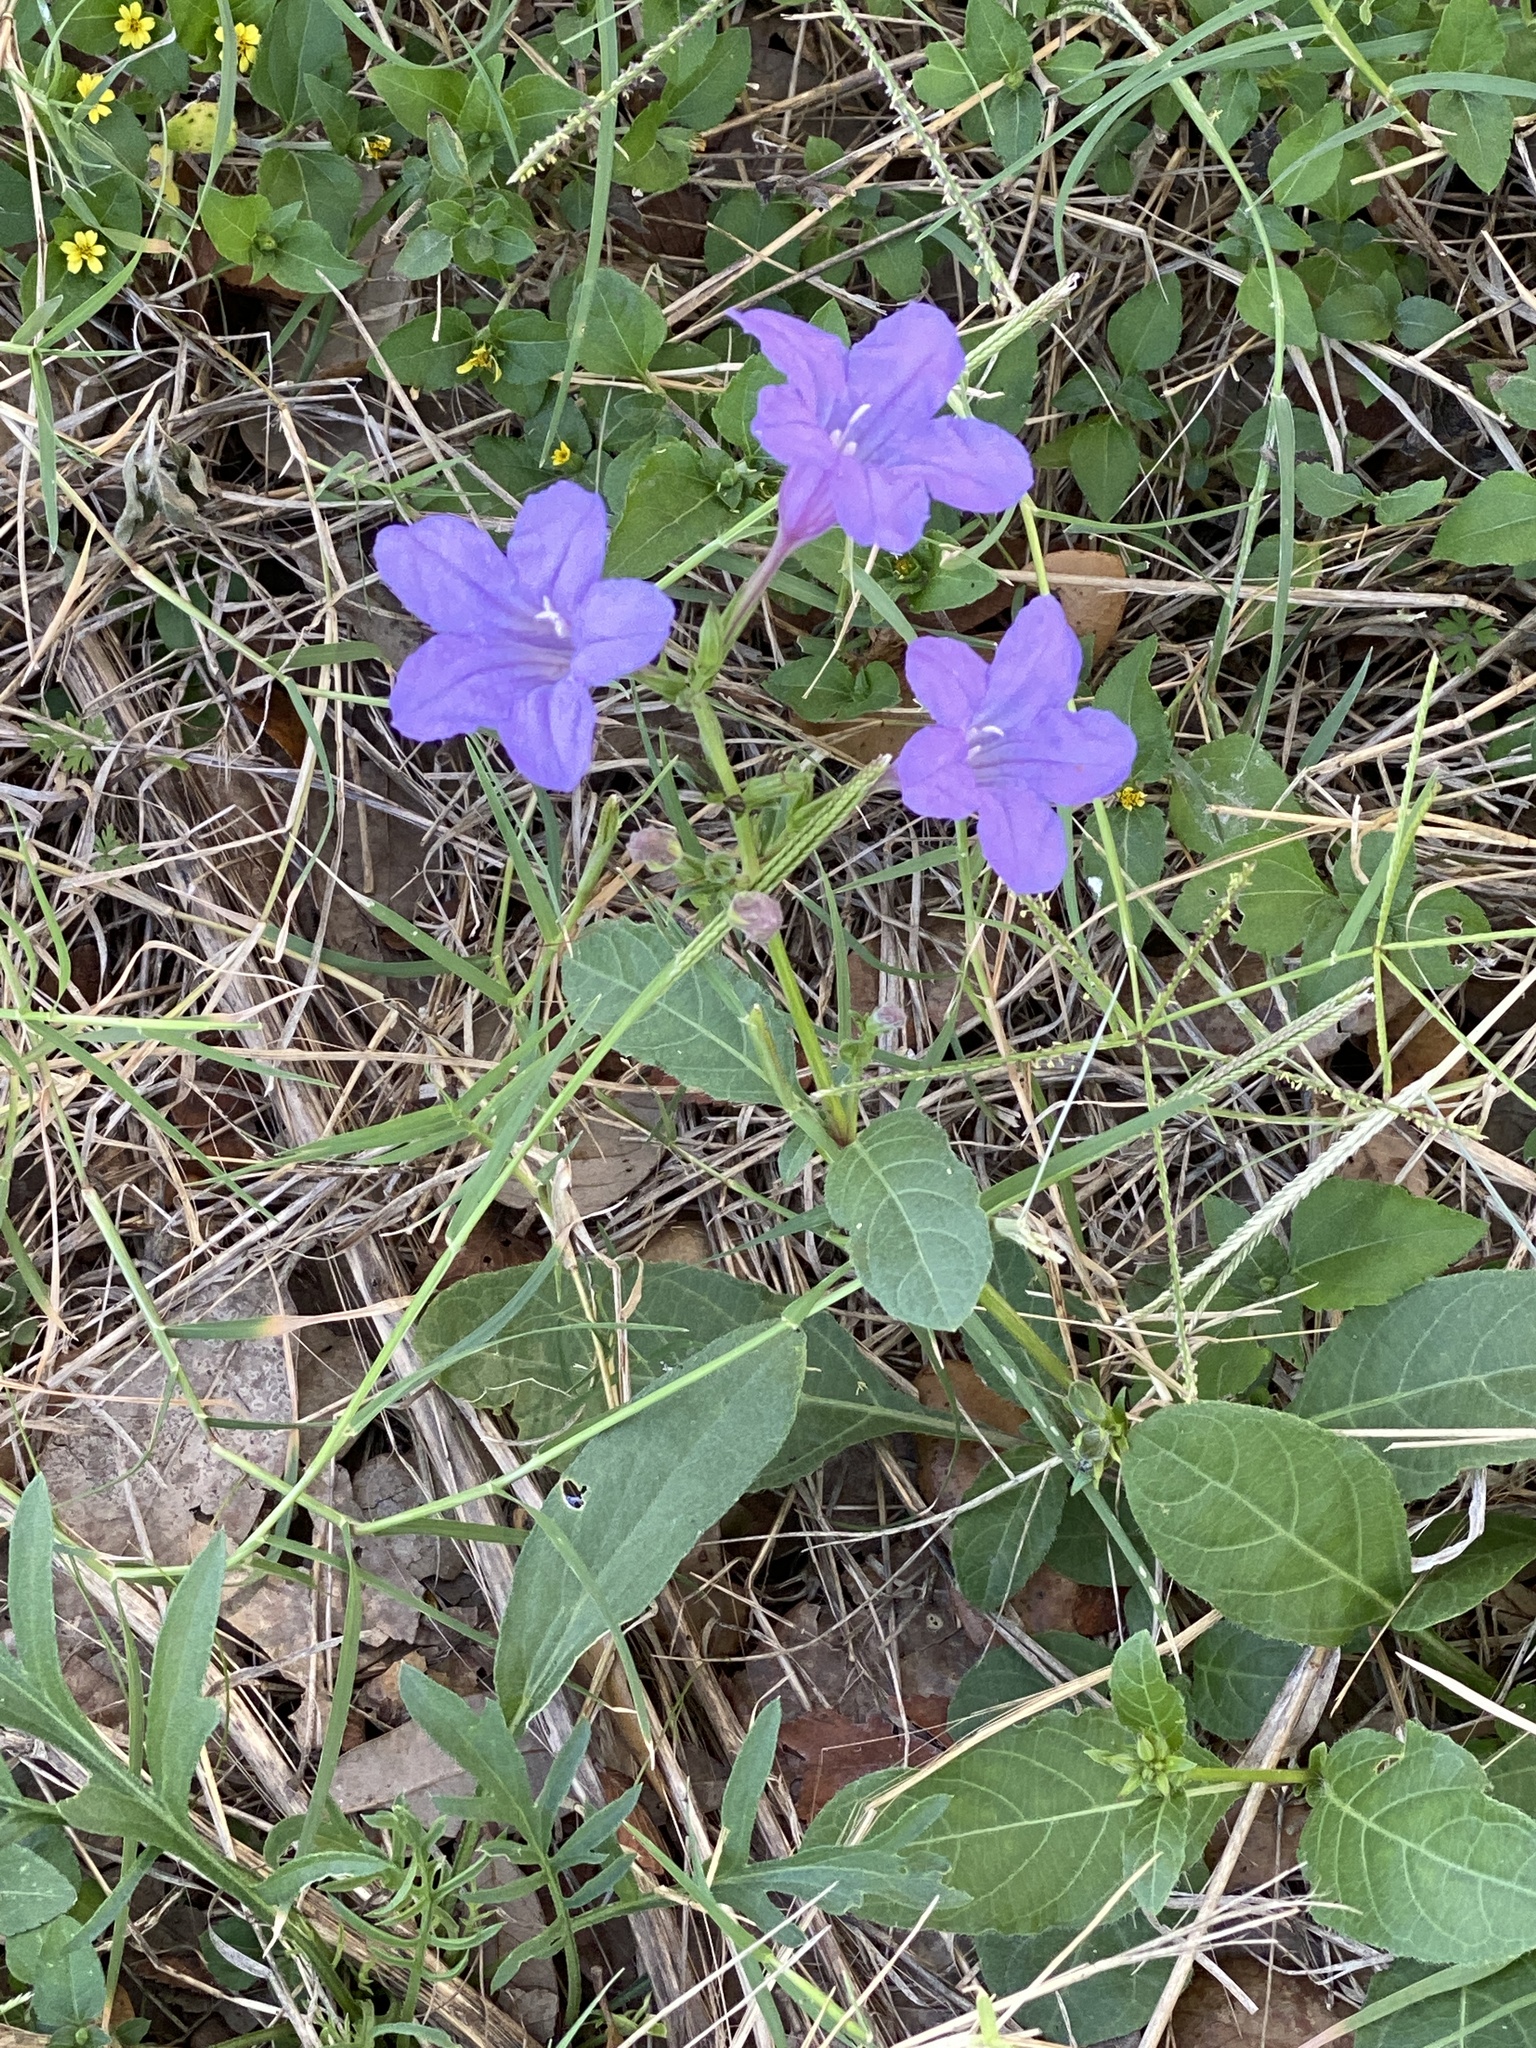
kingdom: Plantae
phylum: Tracheophyta
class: Magnoliopsida
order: Lamiales
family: Acanthaceae
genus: Ruellia
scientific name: Ruellia ciliatiflora
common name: Hairyflower wild petunia
